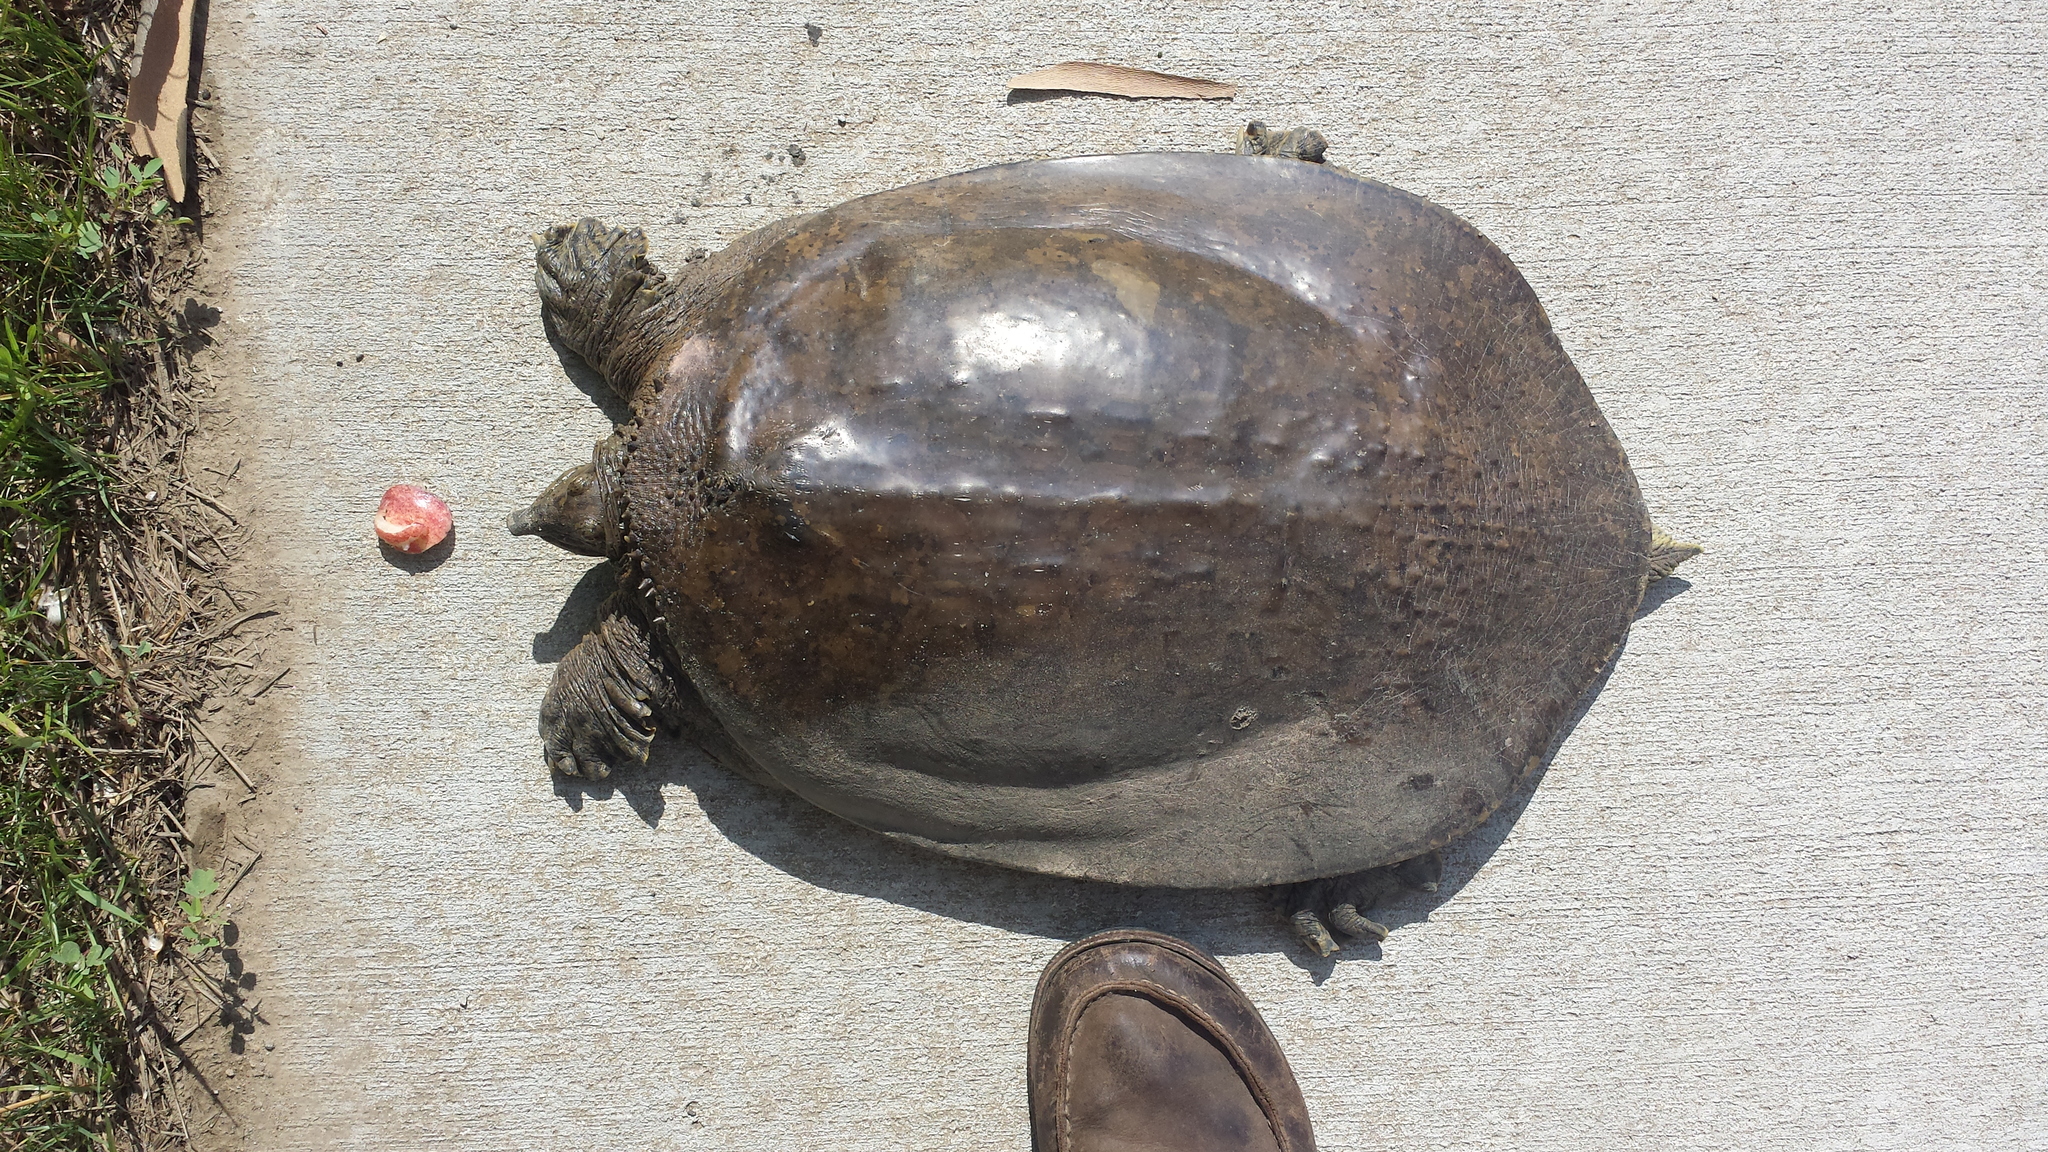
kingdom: Animalia
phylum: Chordata
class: Testudines
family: Trionychidae
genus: Apalone
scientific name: Apalone spinifera
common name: Spiny softshell turtle
